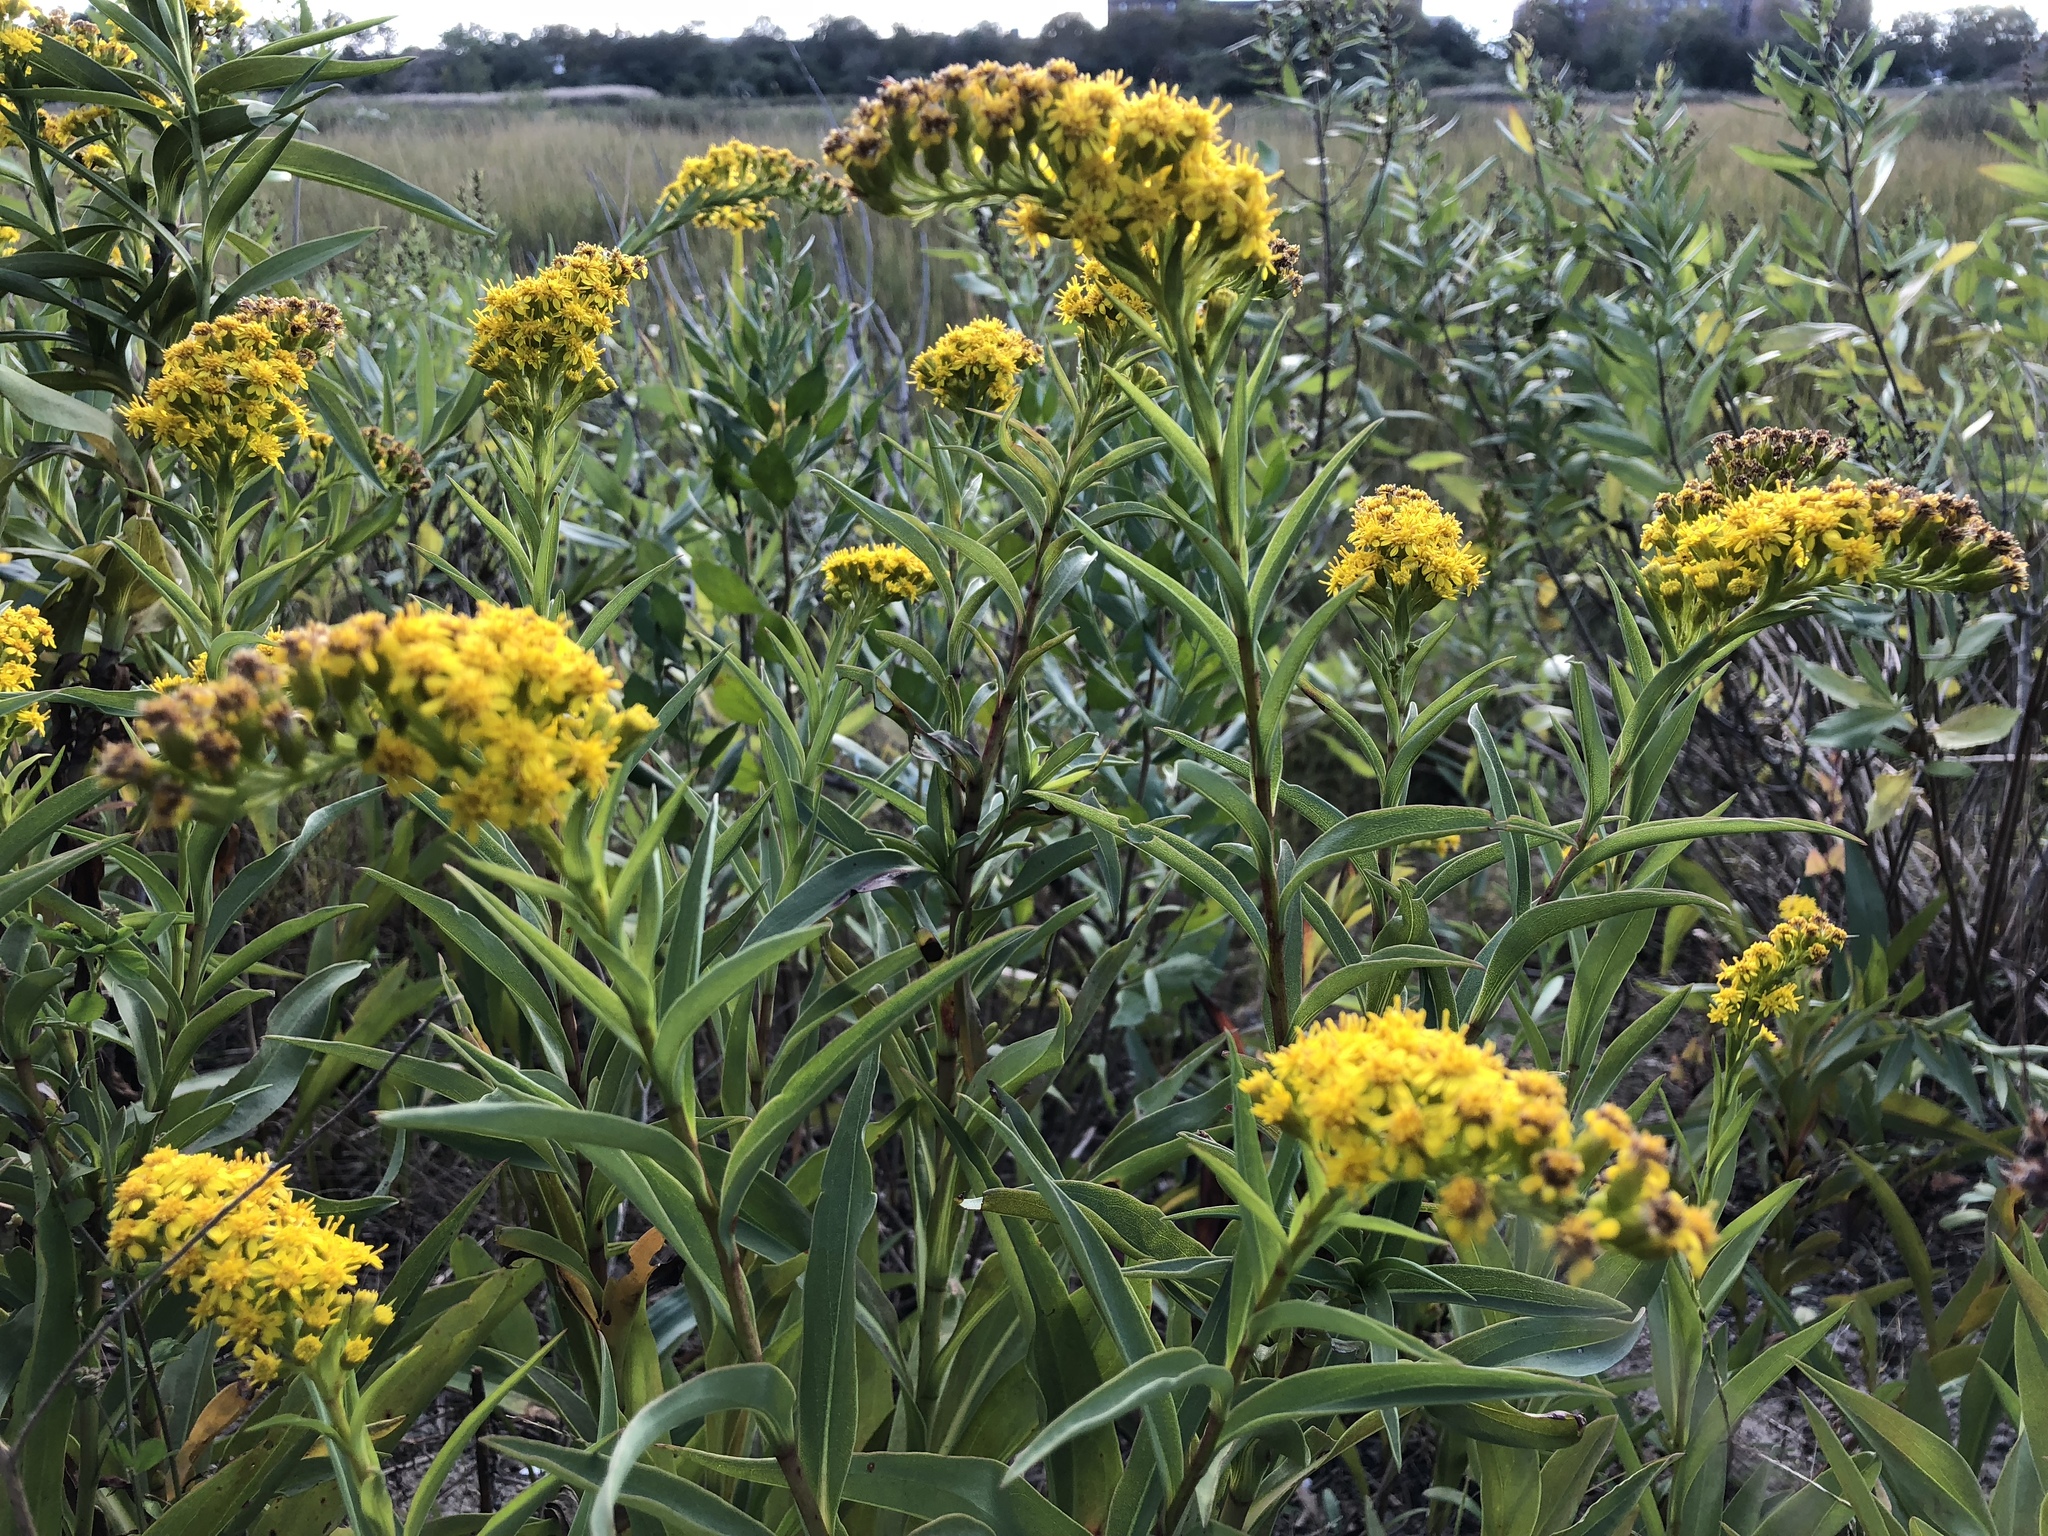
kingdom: Plantae
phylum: Tracheophyta
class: Magnoliopsida
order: Asterales
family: Asteraceae
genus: Solidago
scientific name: Solidago sempervirens
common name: Salt-marsh goldenrod
